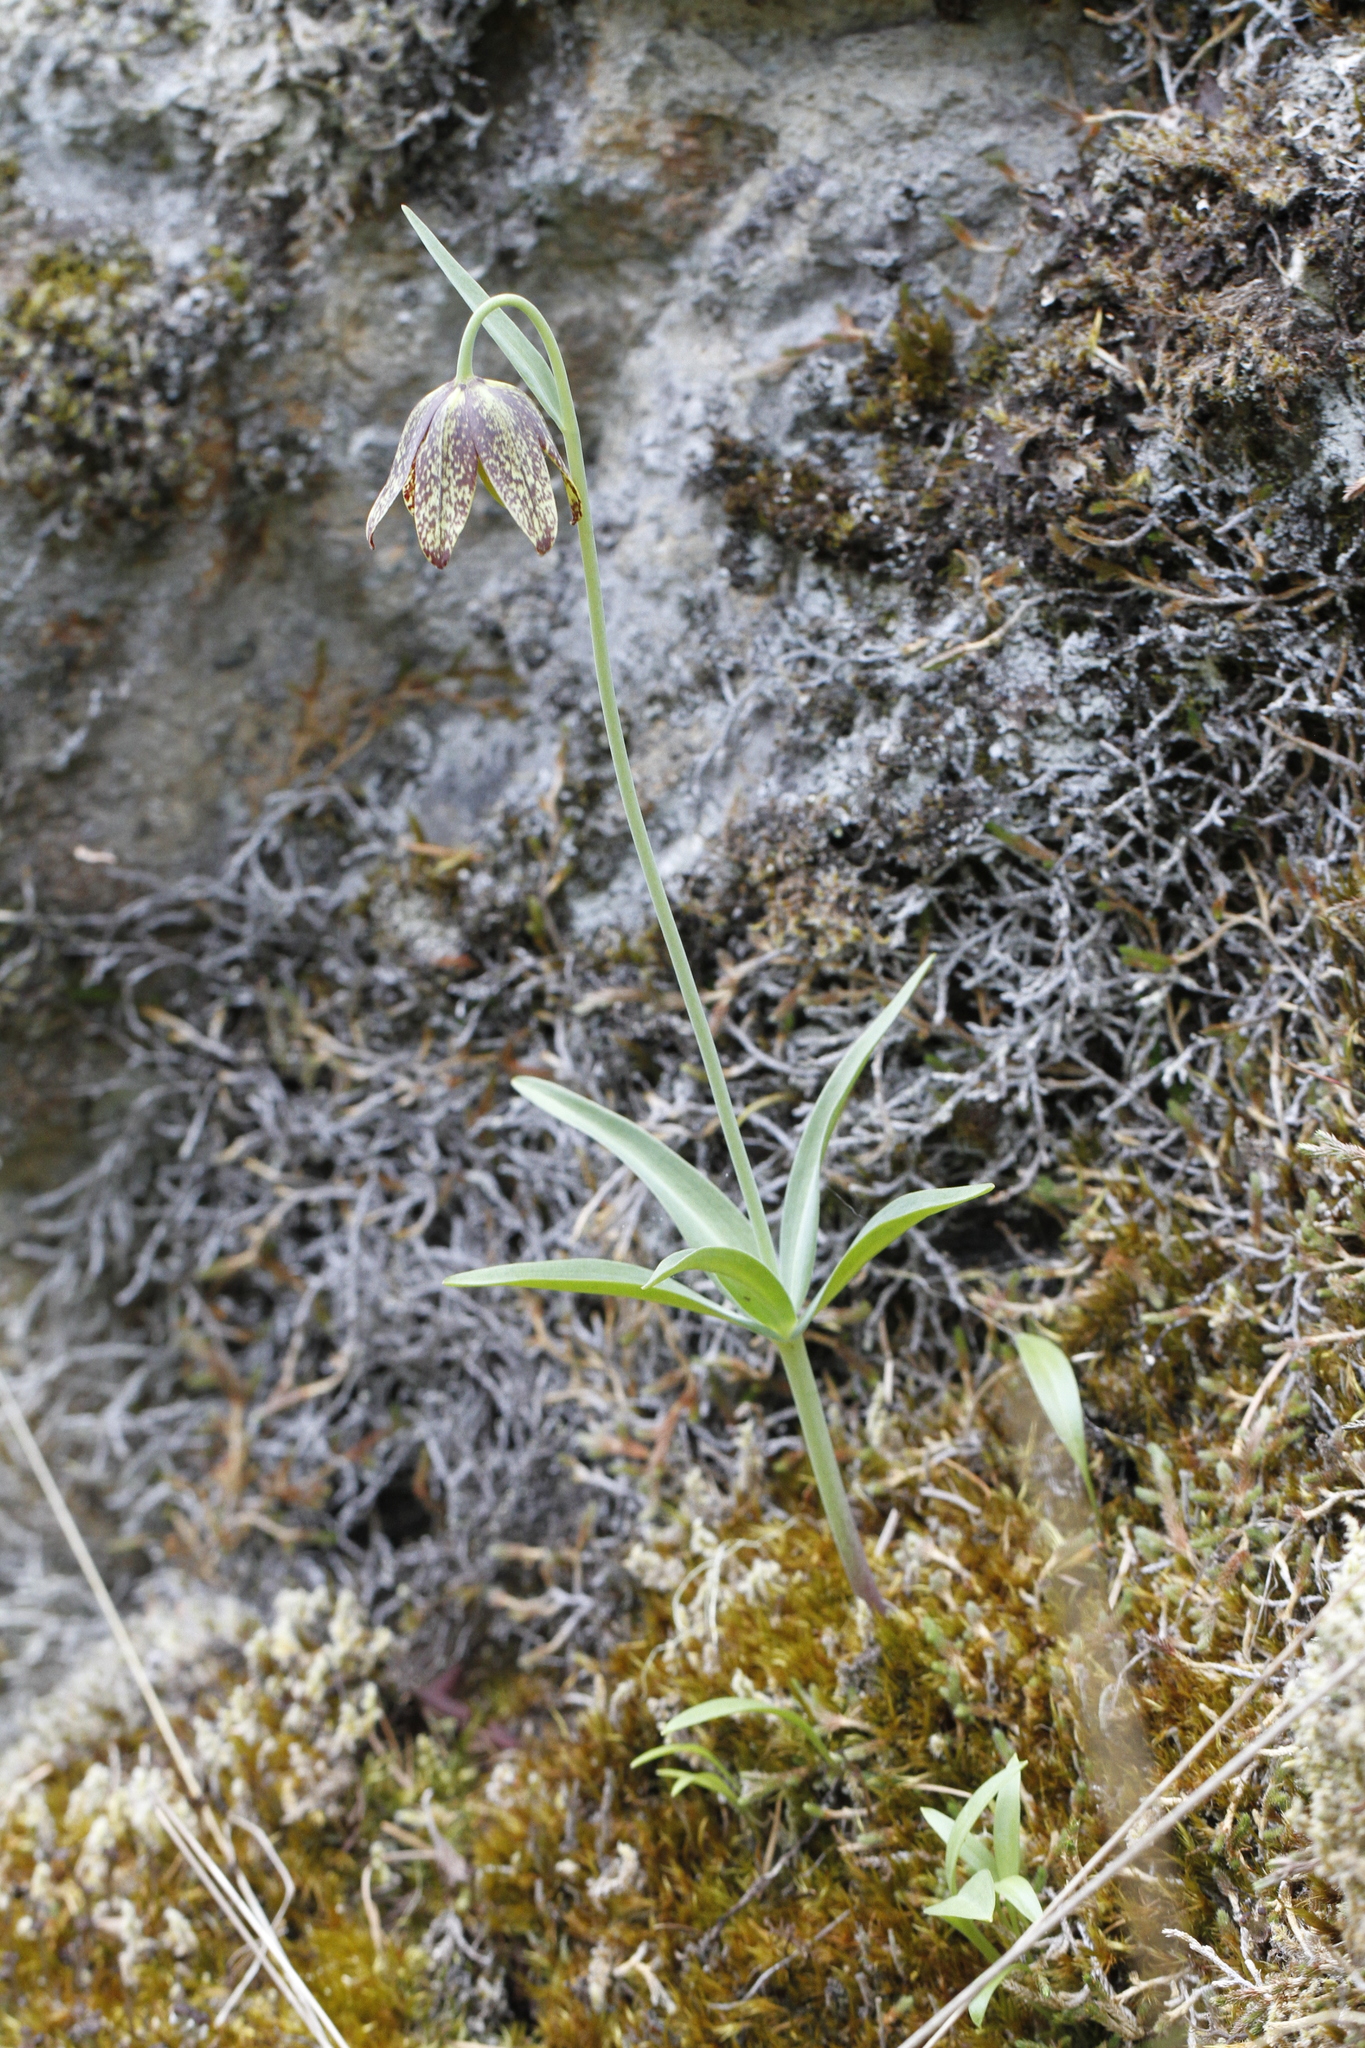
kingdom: Plantae
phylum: Tracheophyta
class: Liliopsida
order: Liliales
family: Liliaceae
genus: Fritillaria
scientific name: Fritillaria affinis
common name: Ojai fritillary
